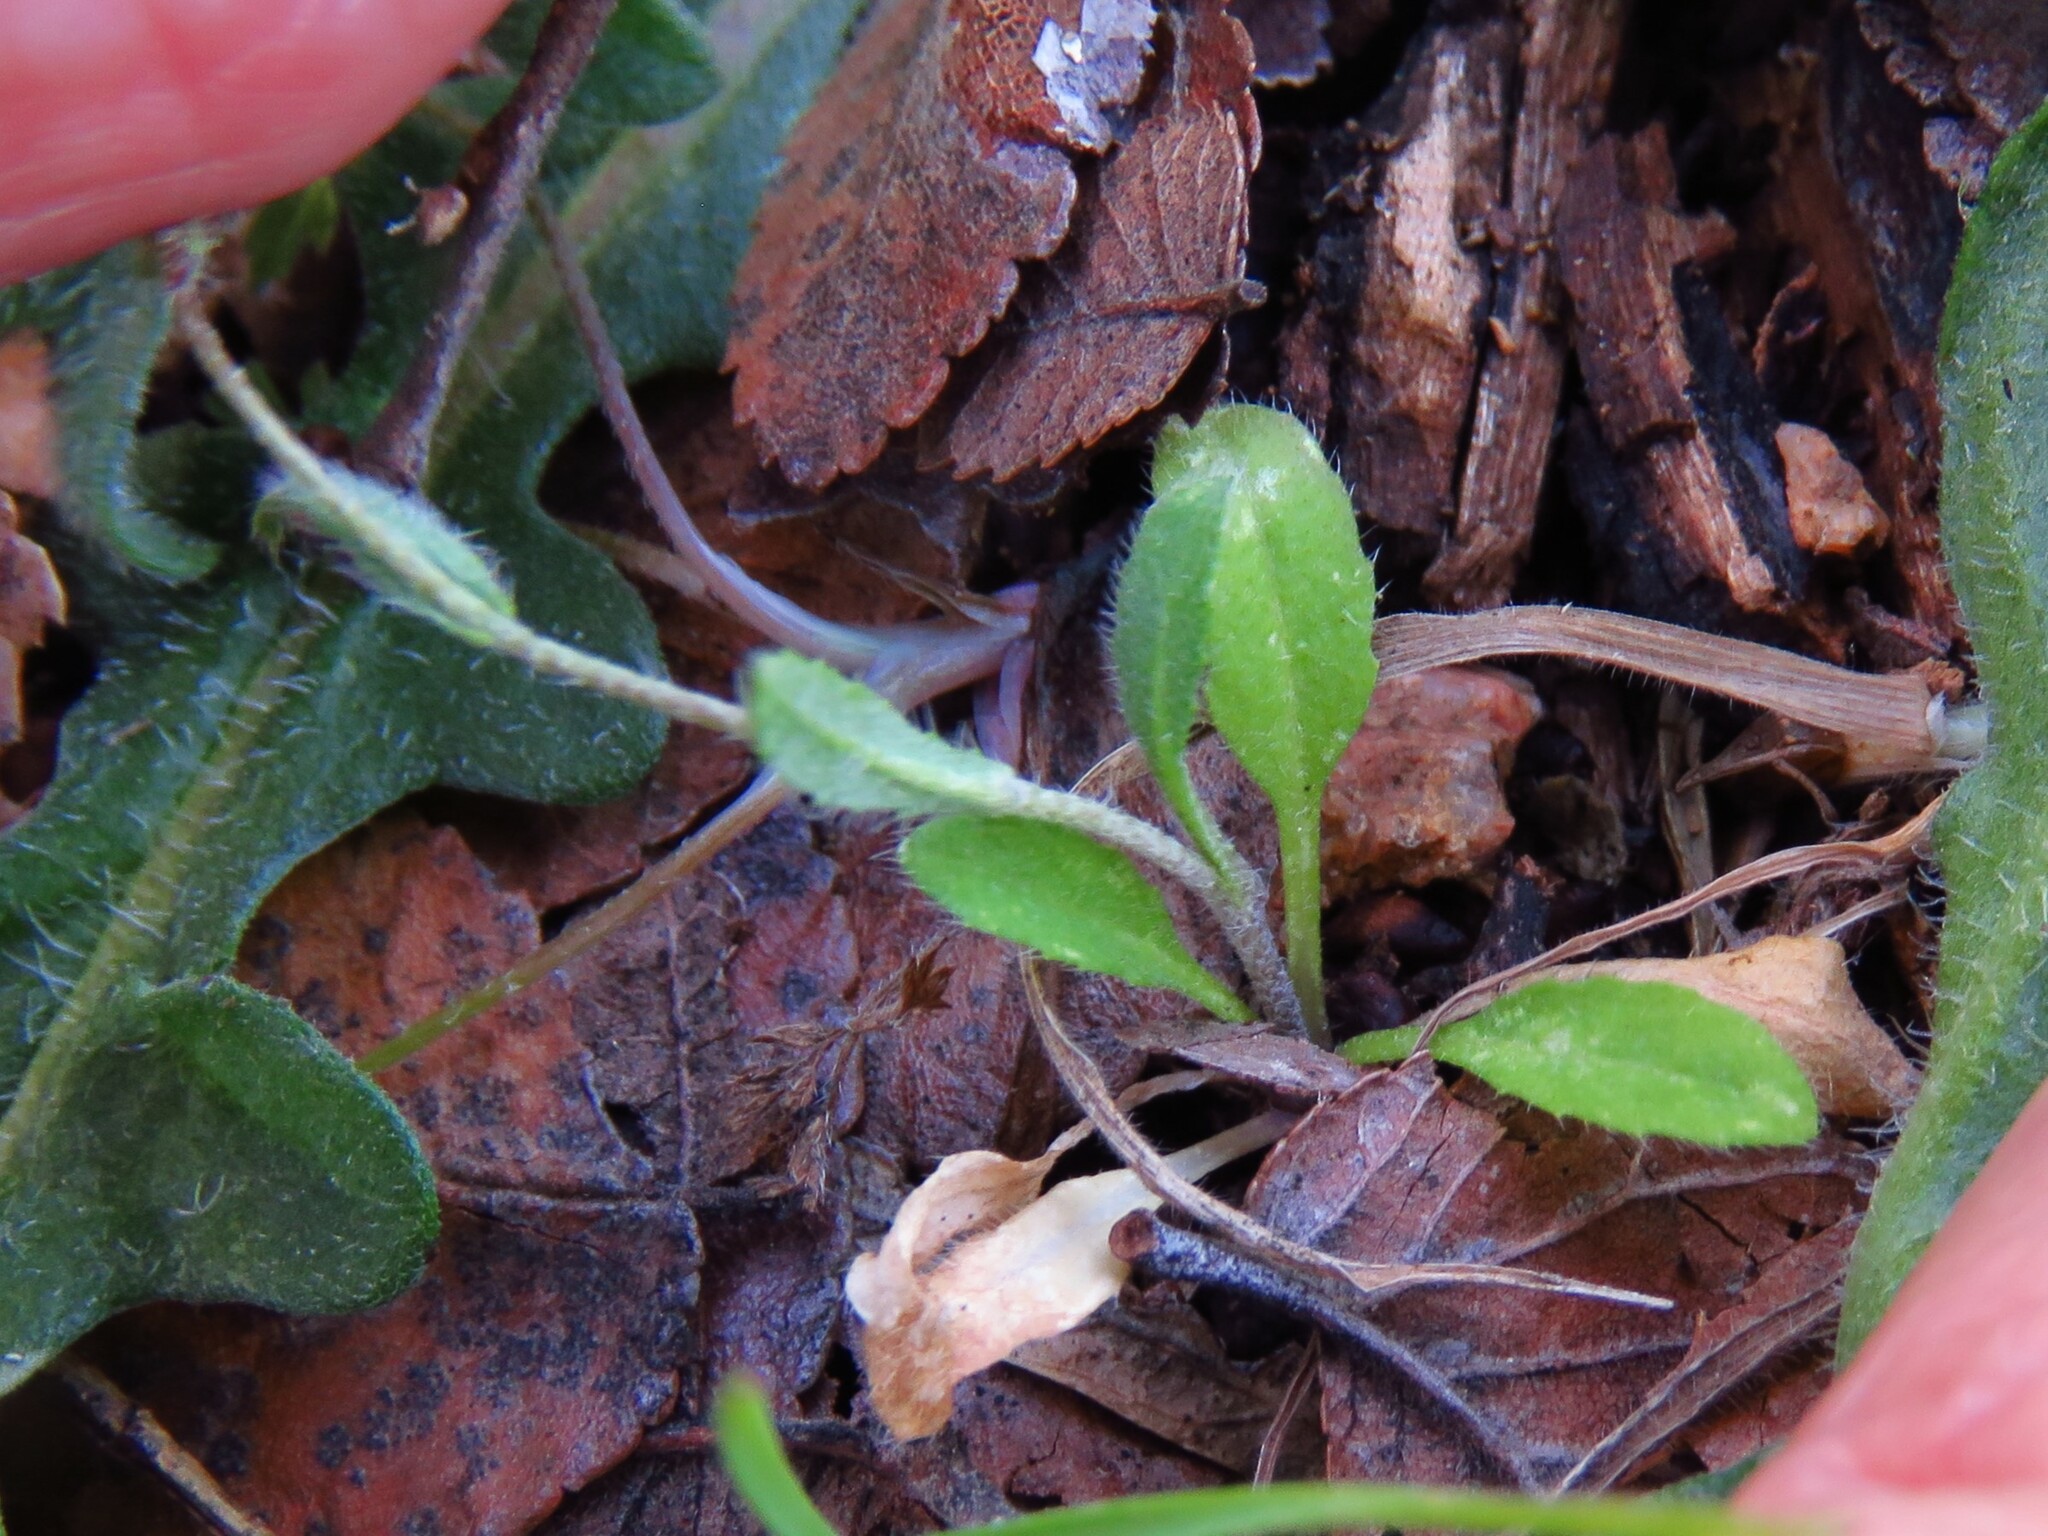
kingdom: Plantae
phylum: Tracheophyta
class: Magnoliopsida
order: Brassicales
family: Brassicaceae
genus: Capsella
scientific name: Capsella bursa-pastoris
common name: Shepherd's purse
